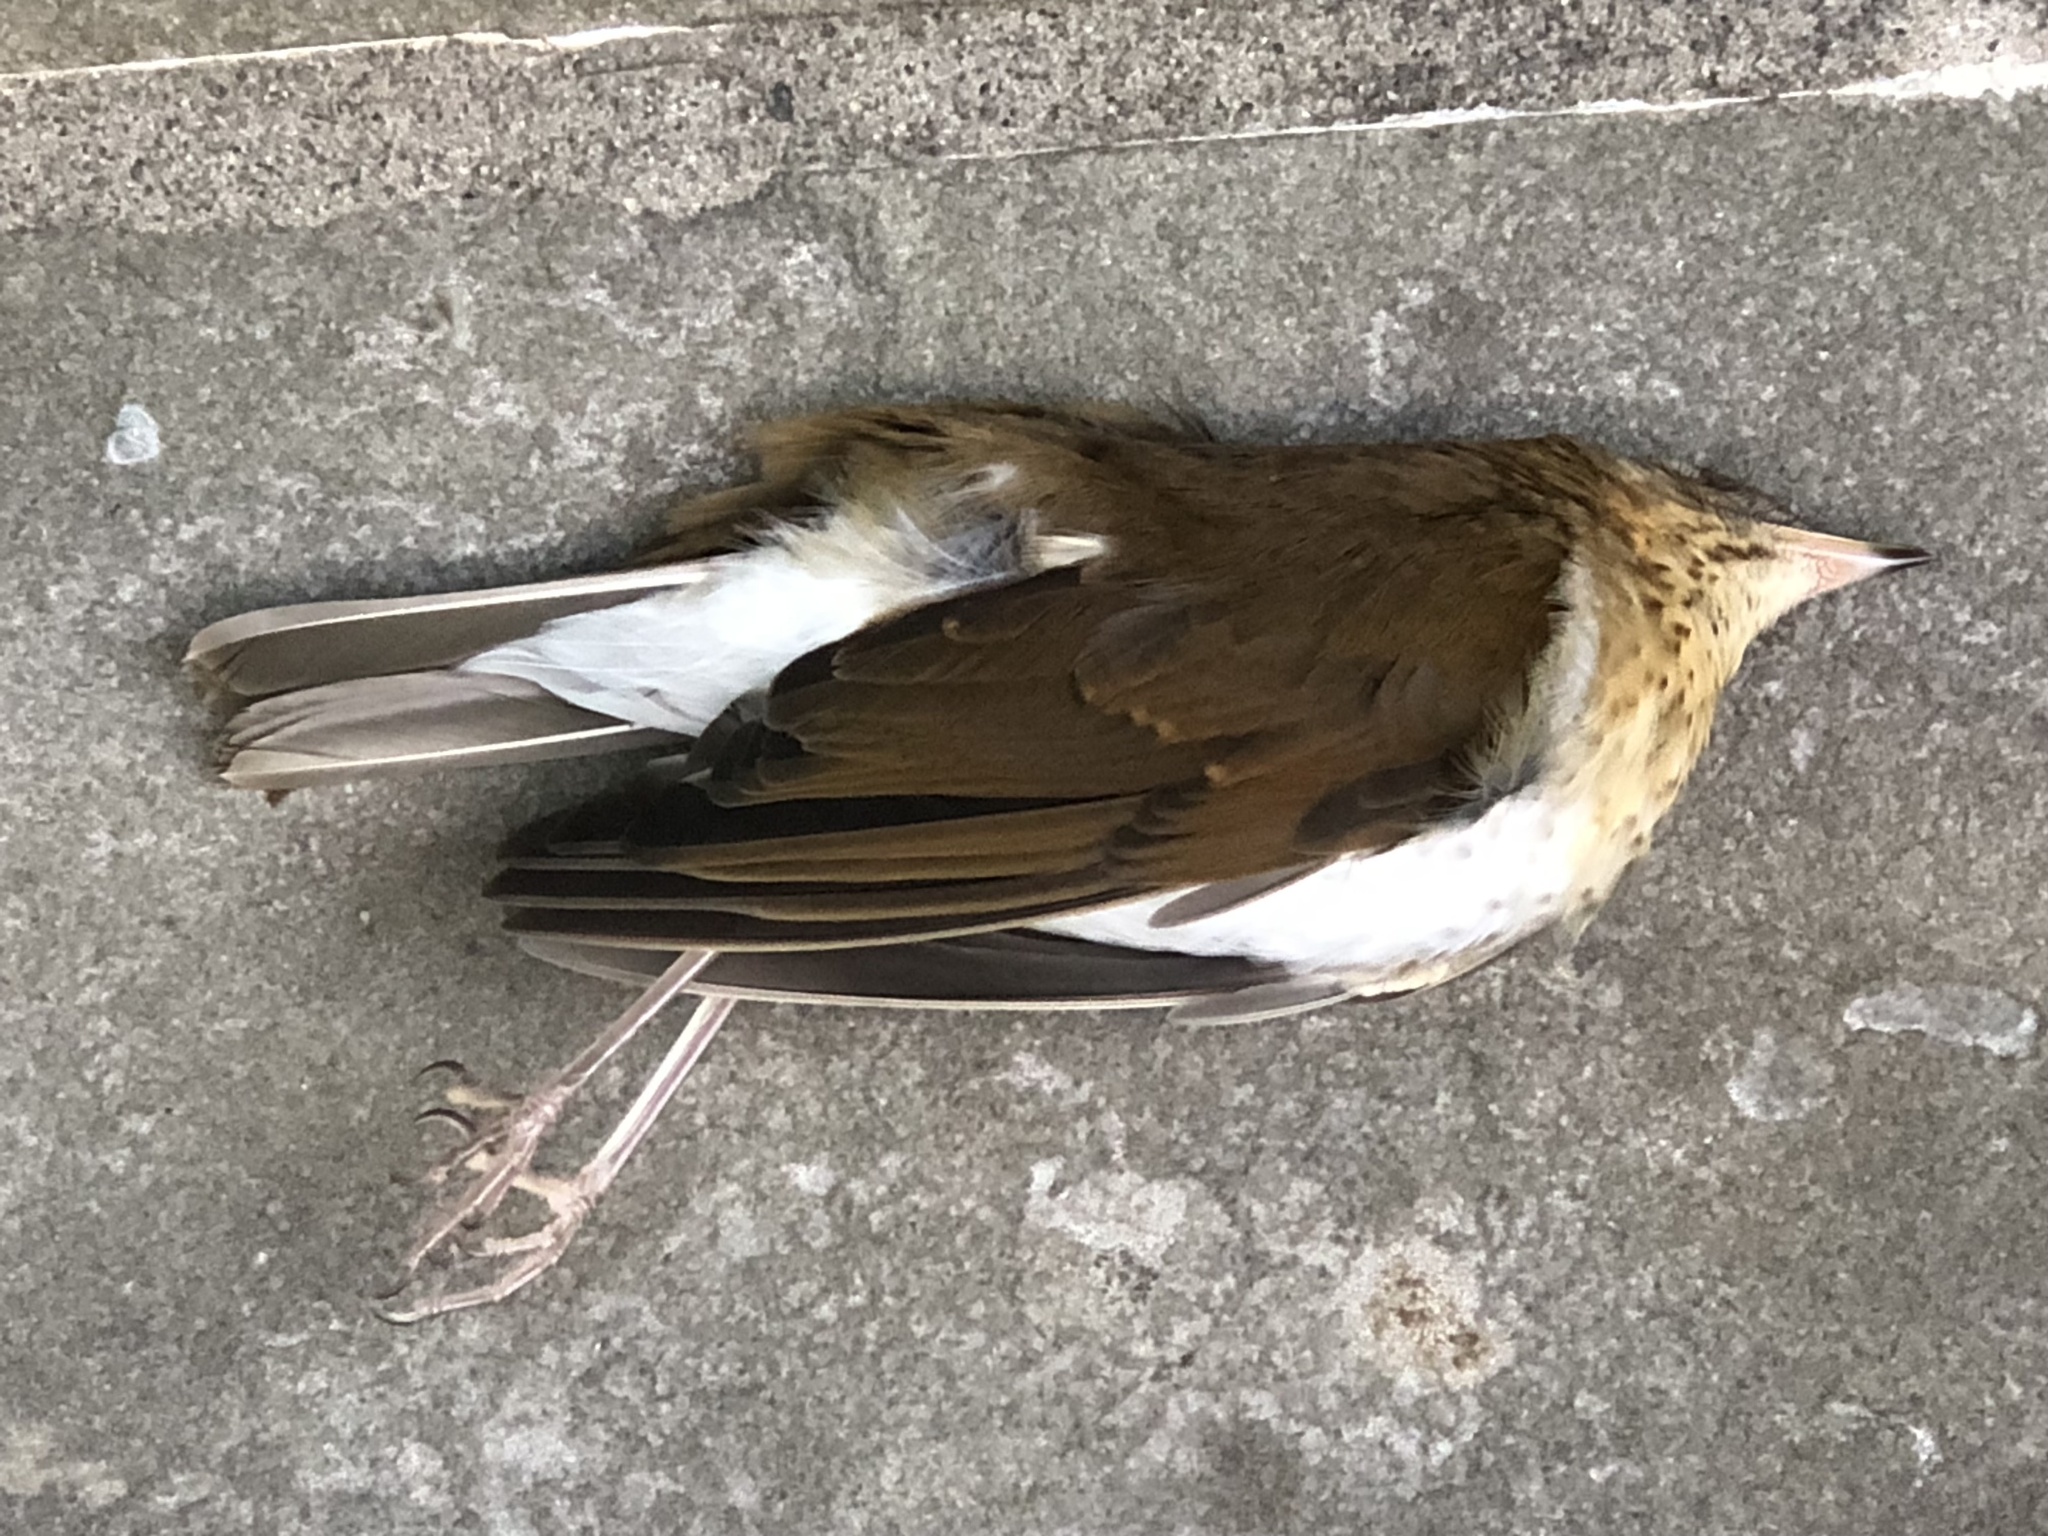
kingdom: Animalia
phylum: Chordata
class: Aves
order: Passeriformes
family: Turdidae
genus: Catharus
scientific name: Catharus fuscescens
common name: Veery
